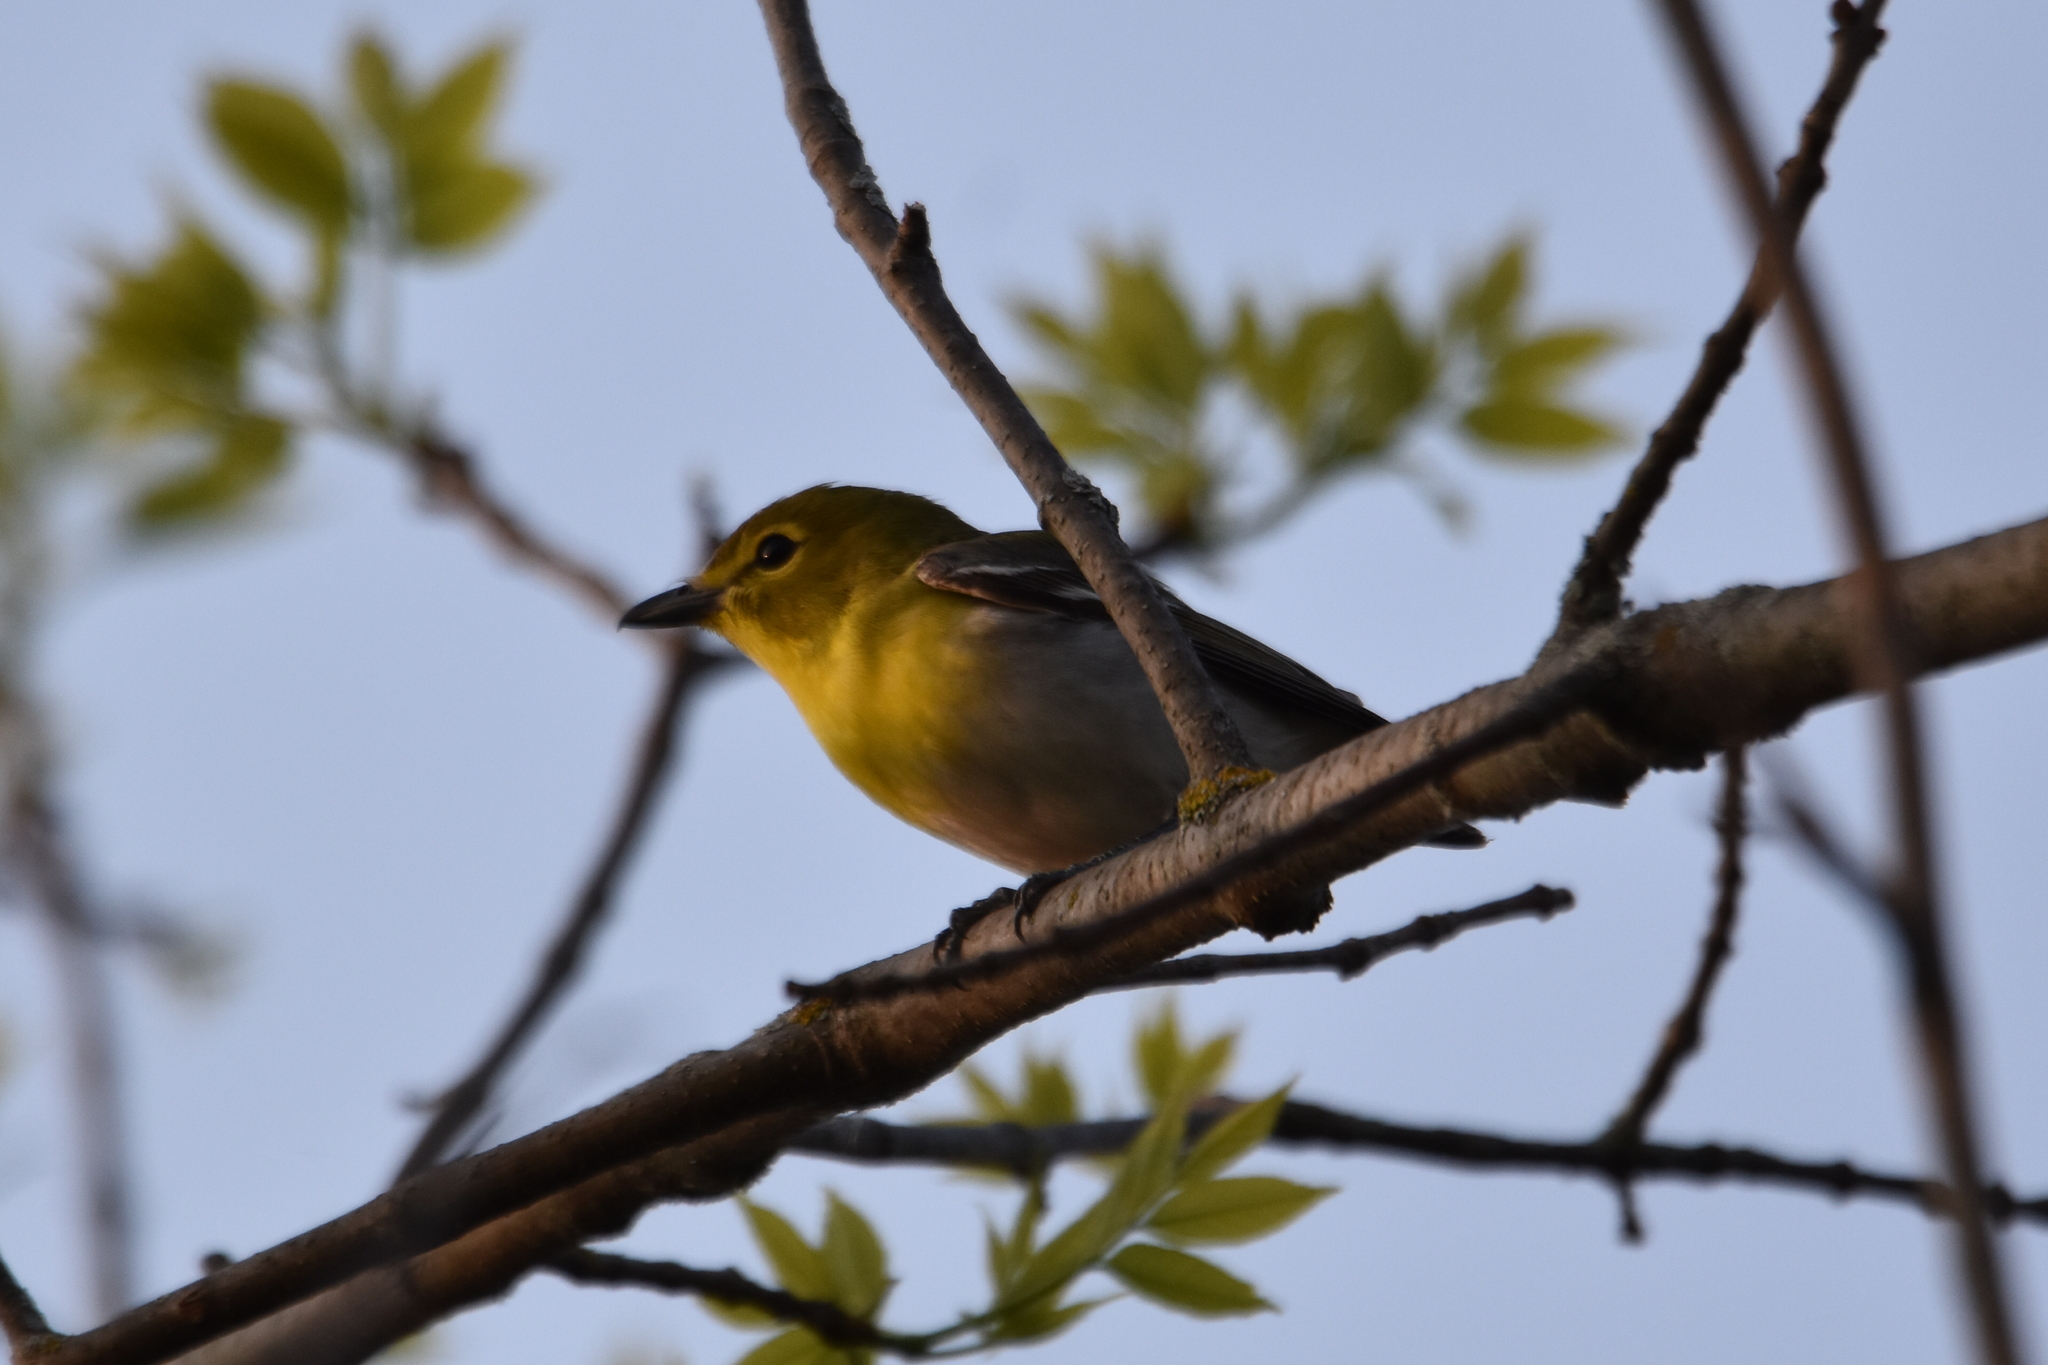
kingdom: Animalia
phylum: Chordata
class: Aves
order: Passeriformes
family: Vireonidae
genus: Vireo
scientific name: Vireo flavifrons
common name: Yellow-throated vireo
